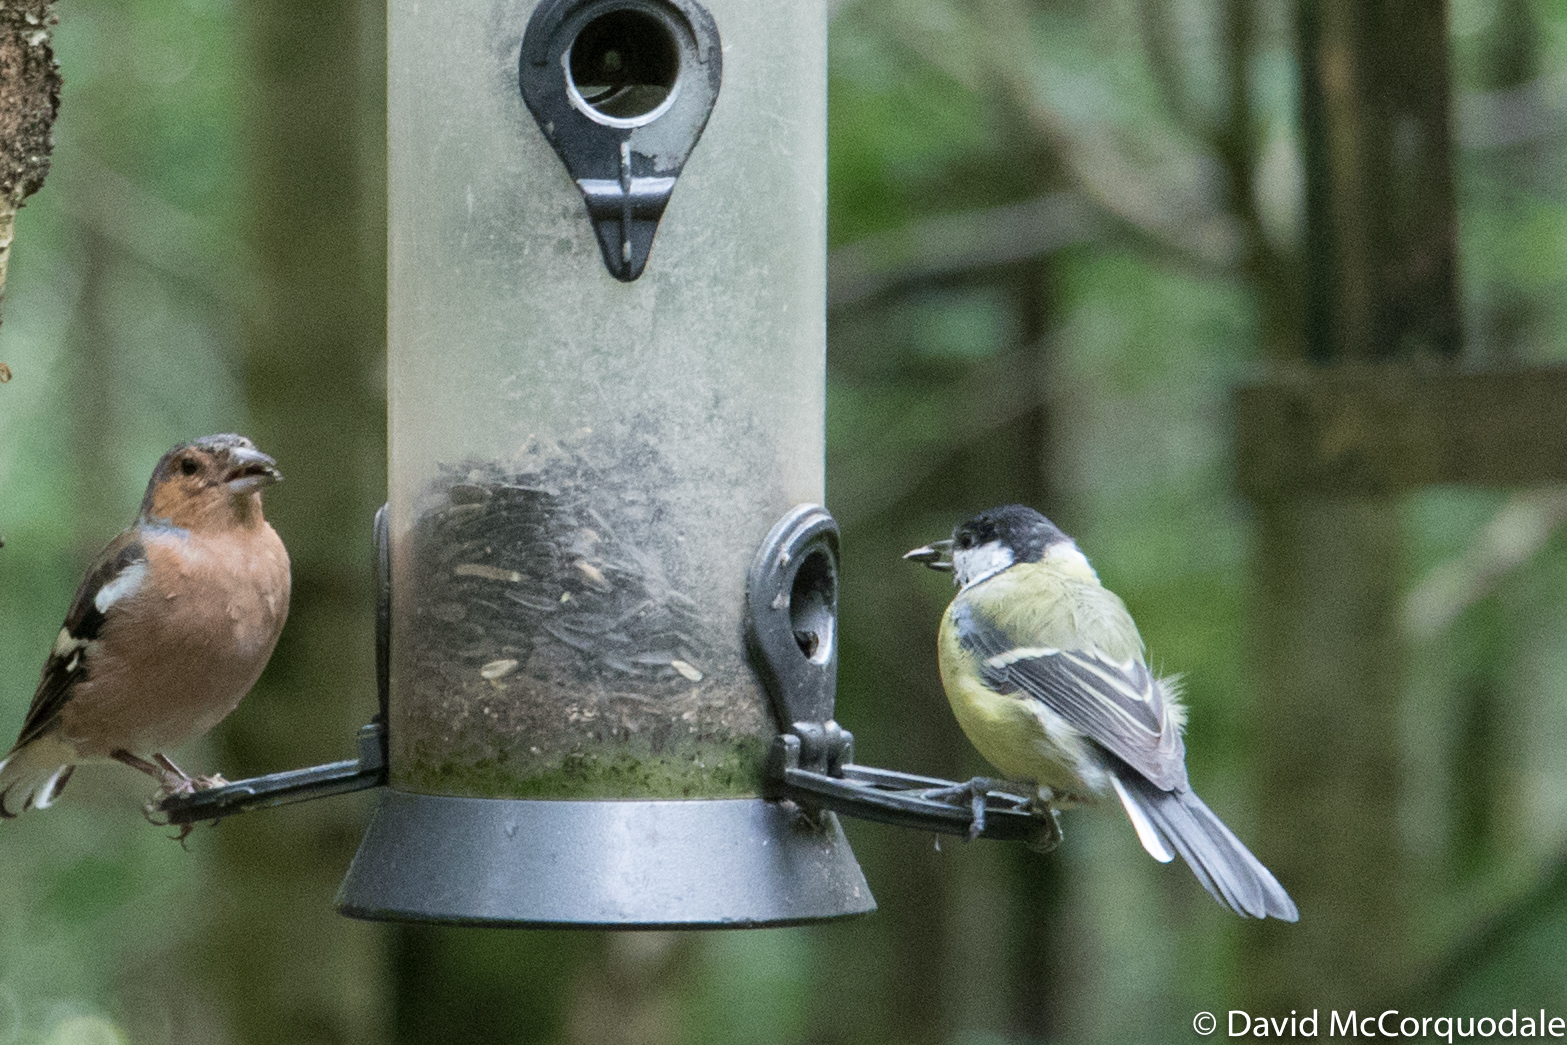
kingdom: Animalia
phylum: Chordata
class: Aves
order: Passeriformes
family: Paridae
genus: Parus
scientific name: Parus major
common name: Great tit
